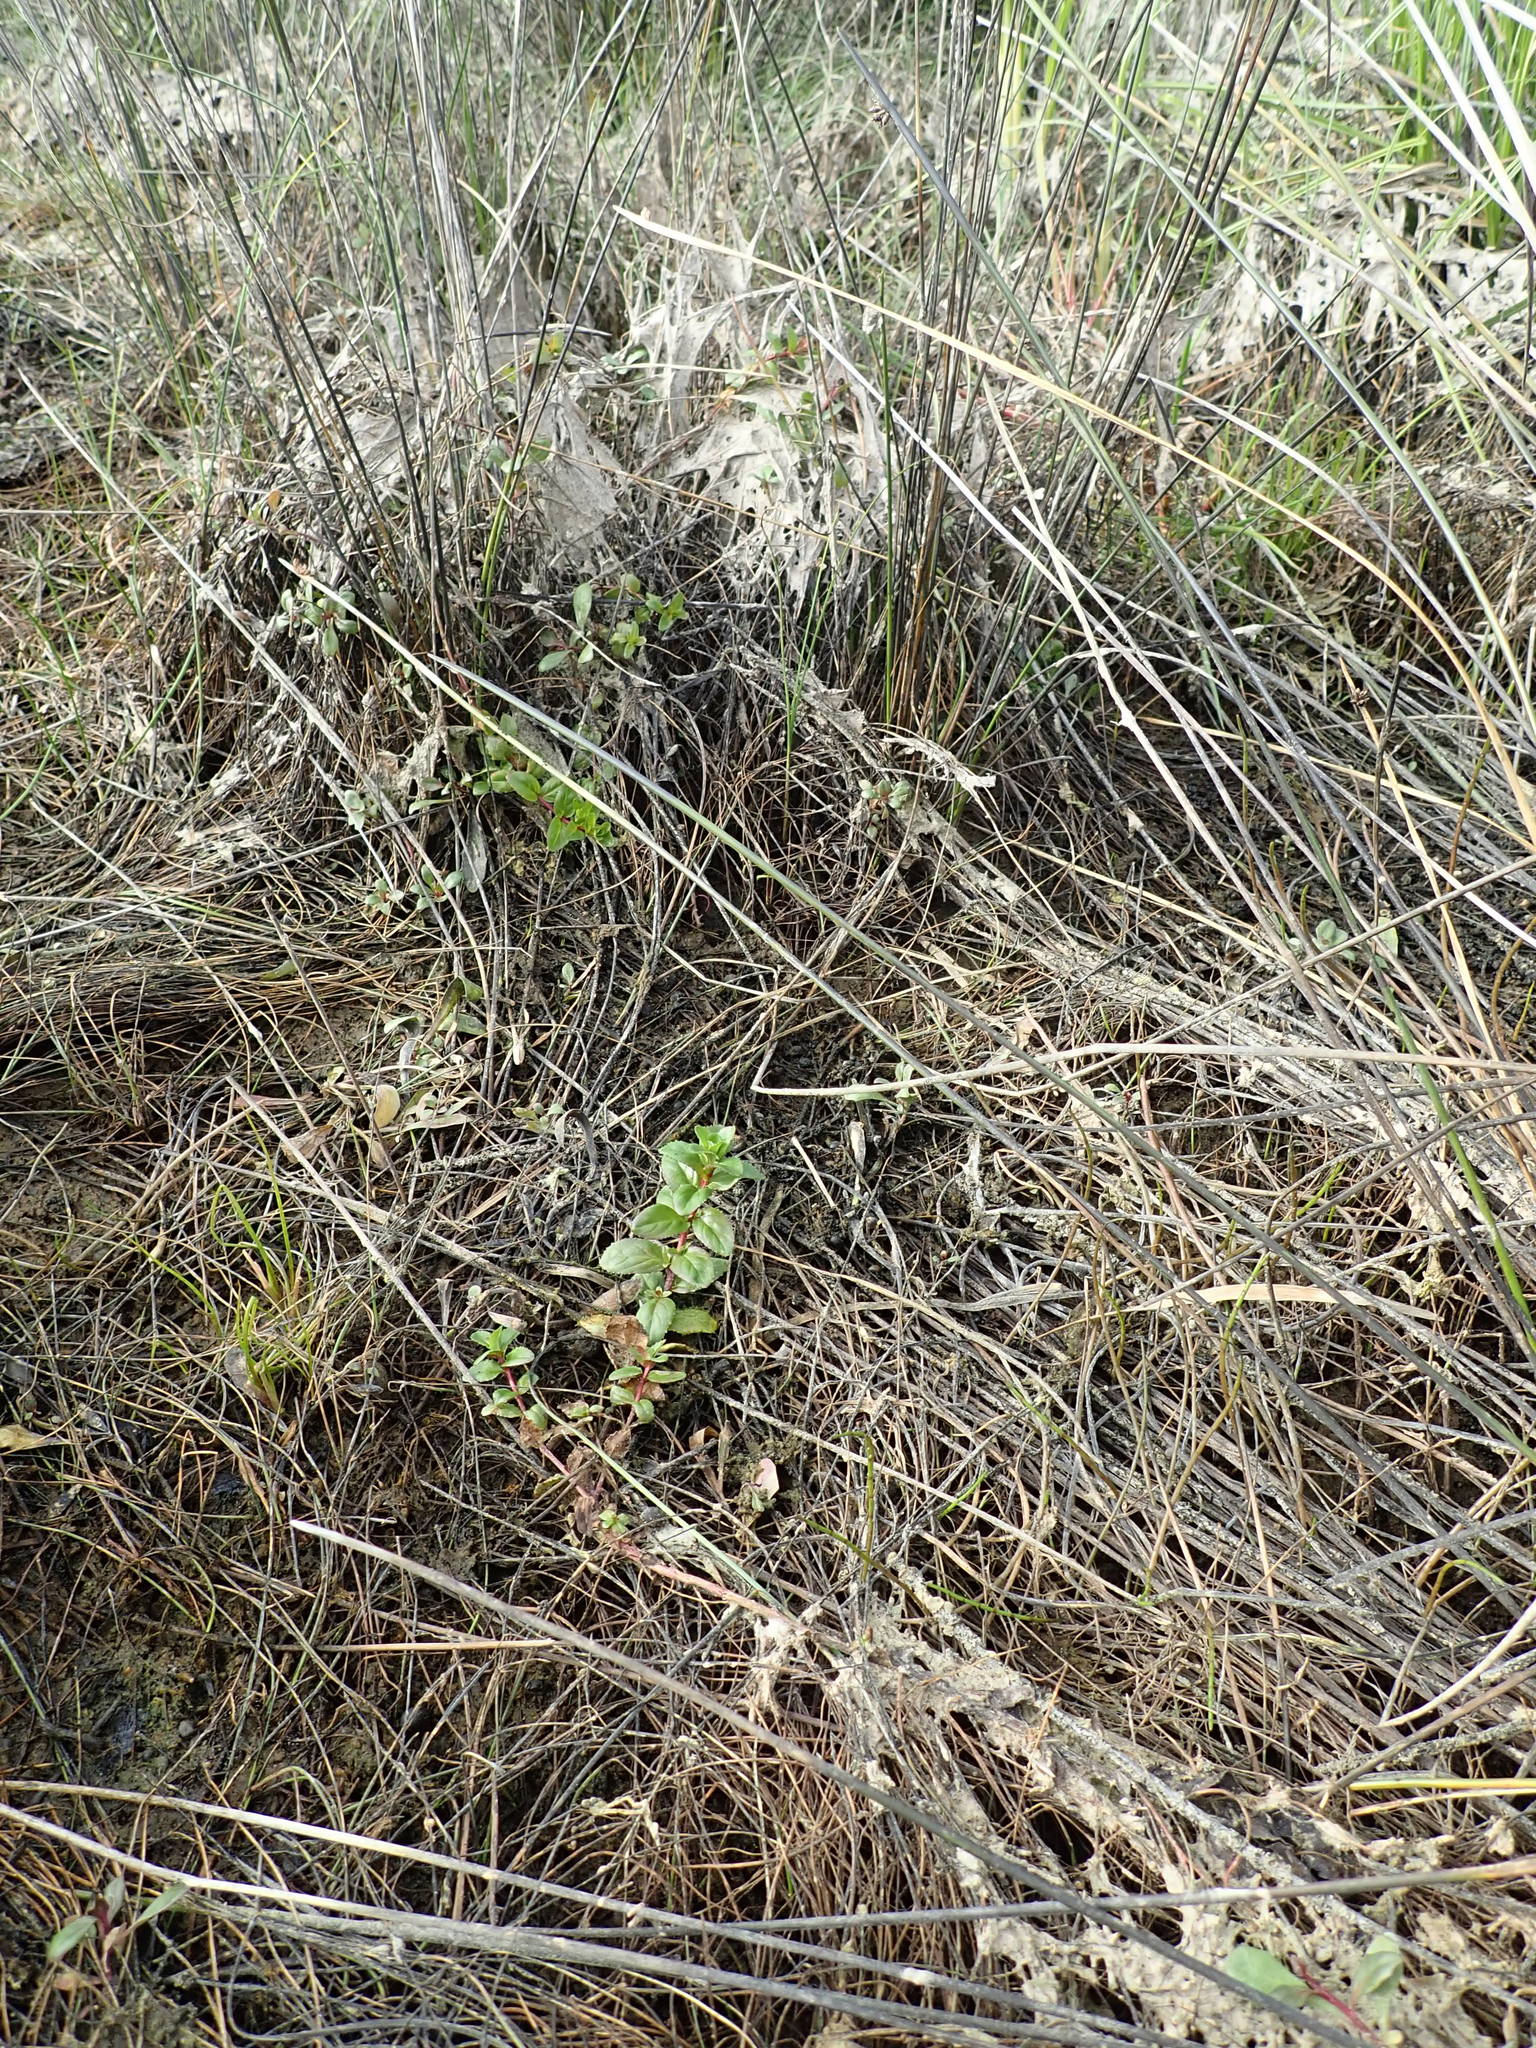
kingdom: Plantae
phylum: Tracheophyta
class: Magnoliopsida
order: Myrtales
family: Onagraceae
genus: Epilobium
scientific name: Epilobium billardiereanum
